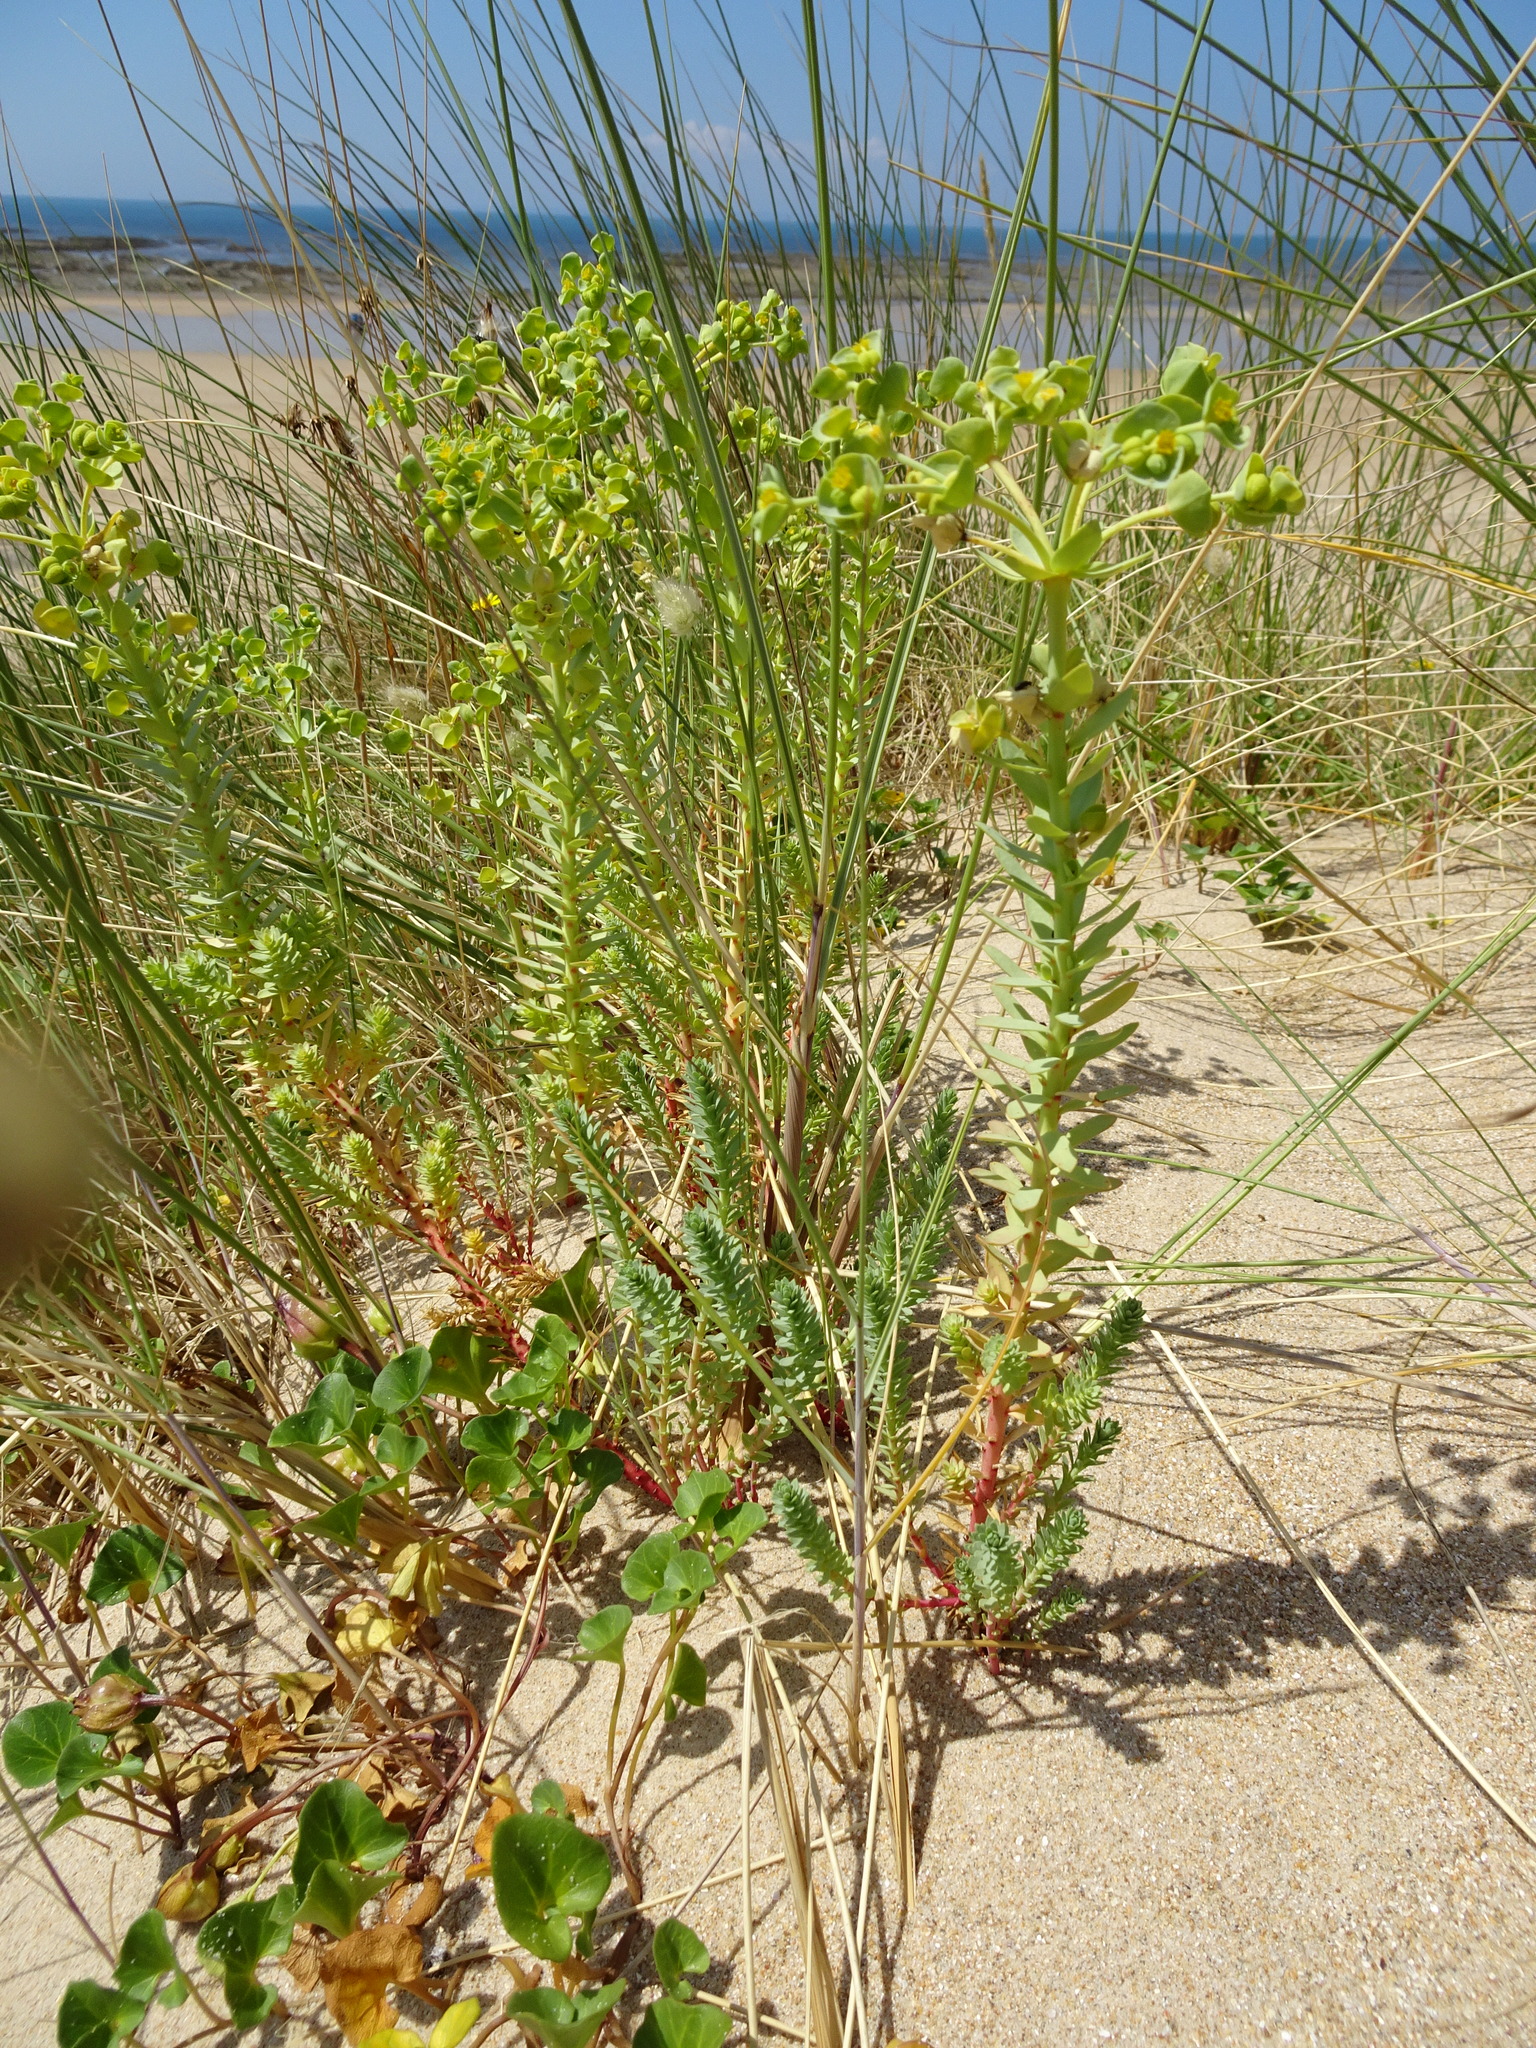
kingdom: Plantae
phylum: Tracheophyta
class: Magnoliopsida
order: Malpighiales
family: Euphorbiaceae
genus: Euphorbia
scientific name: Euphorbia paralias
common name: Sea spurge
